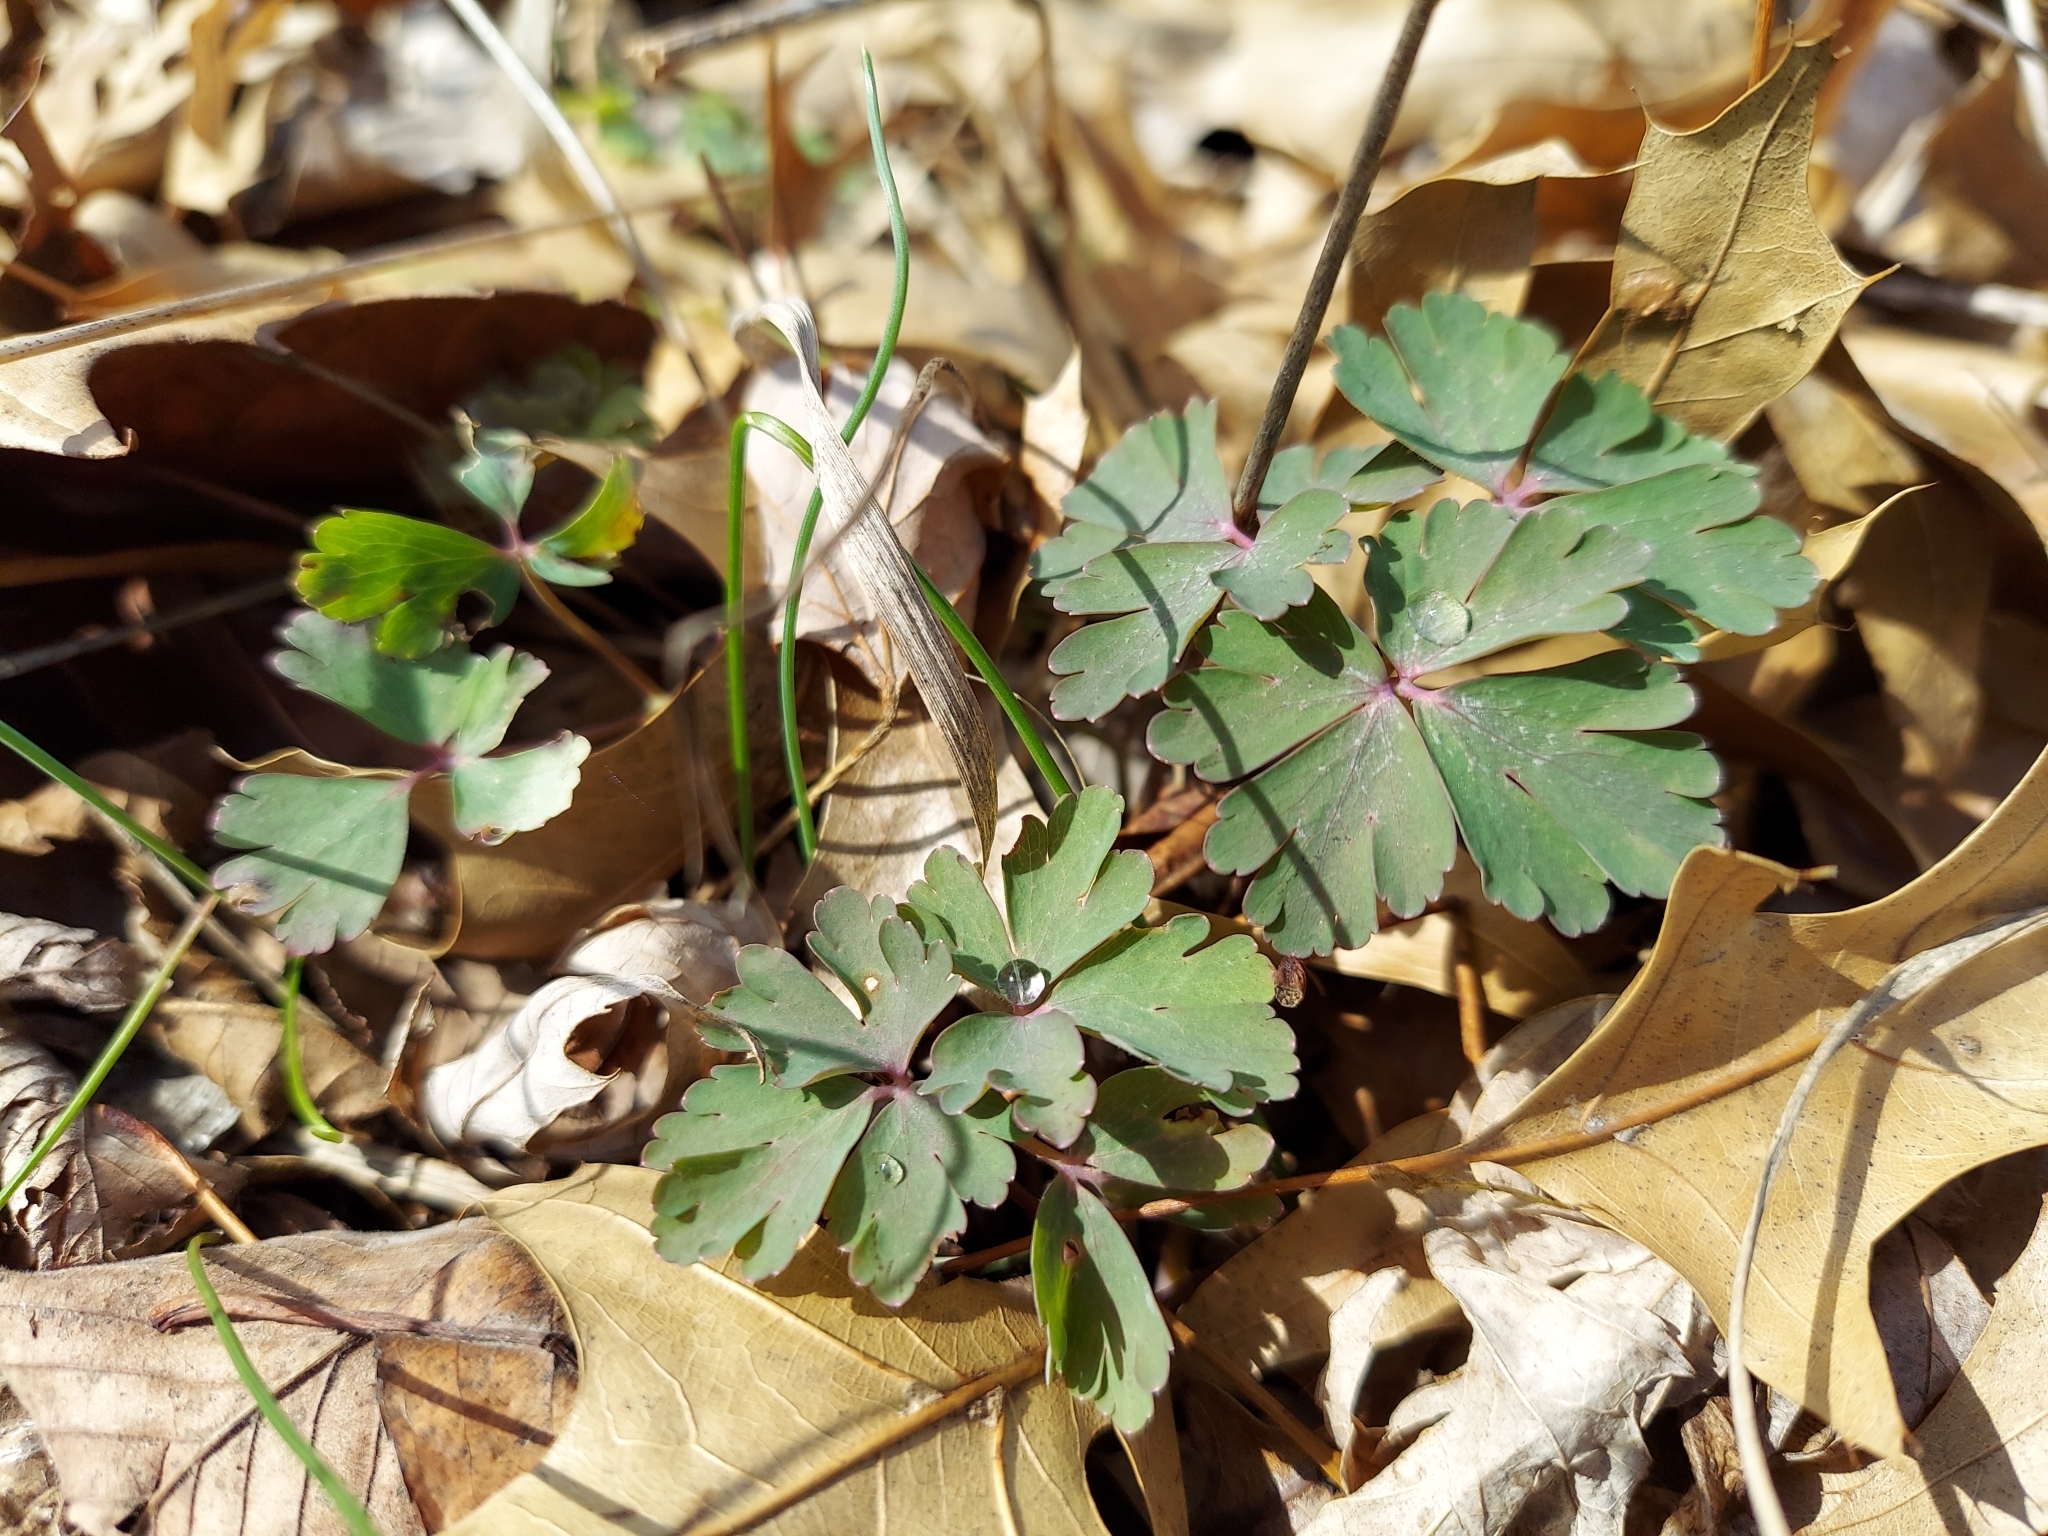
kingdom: Plantae
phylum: Tracheophyta
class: Magnoliopsida
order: Ranunculales
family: Ranunculaceae
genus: Aquilegia
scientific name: Aquilegia canadensis
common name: American columbine
